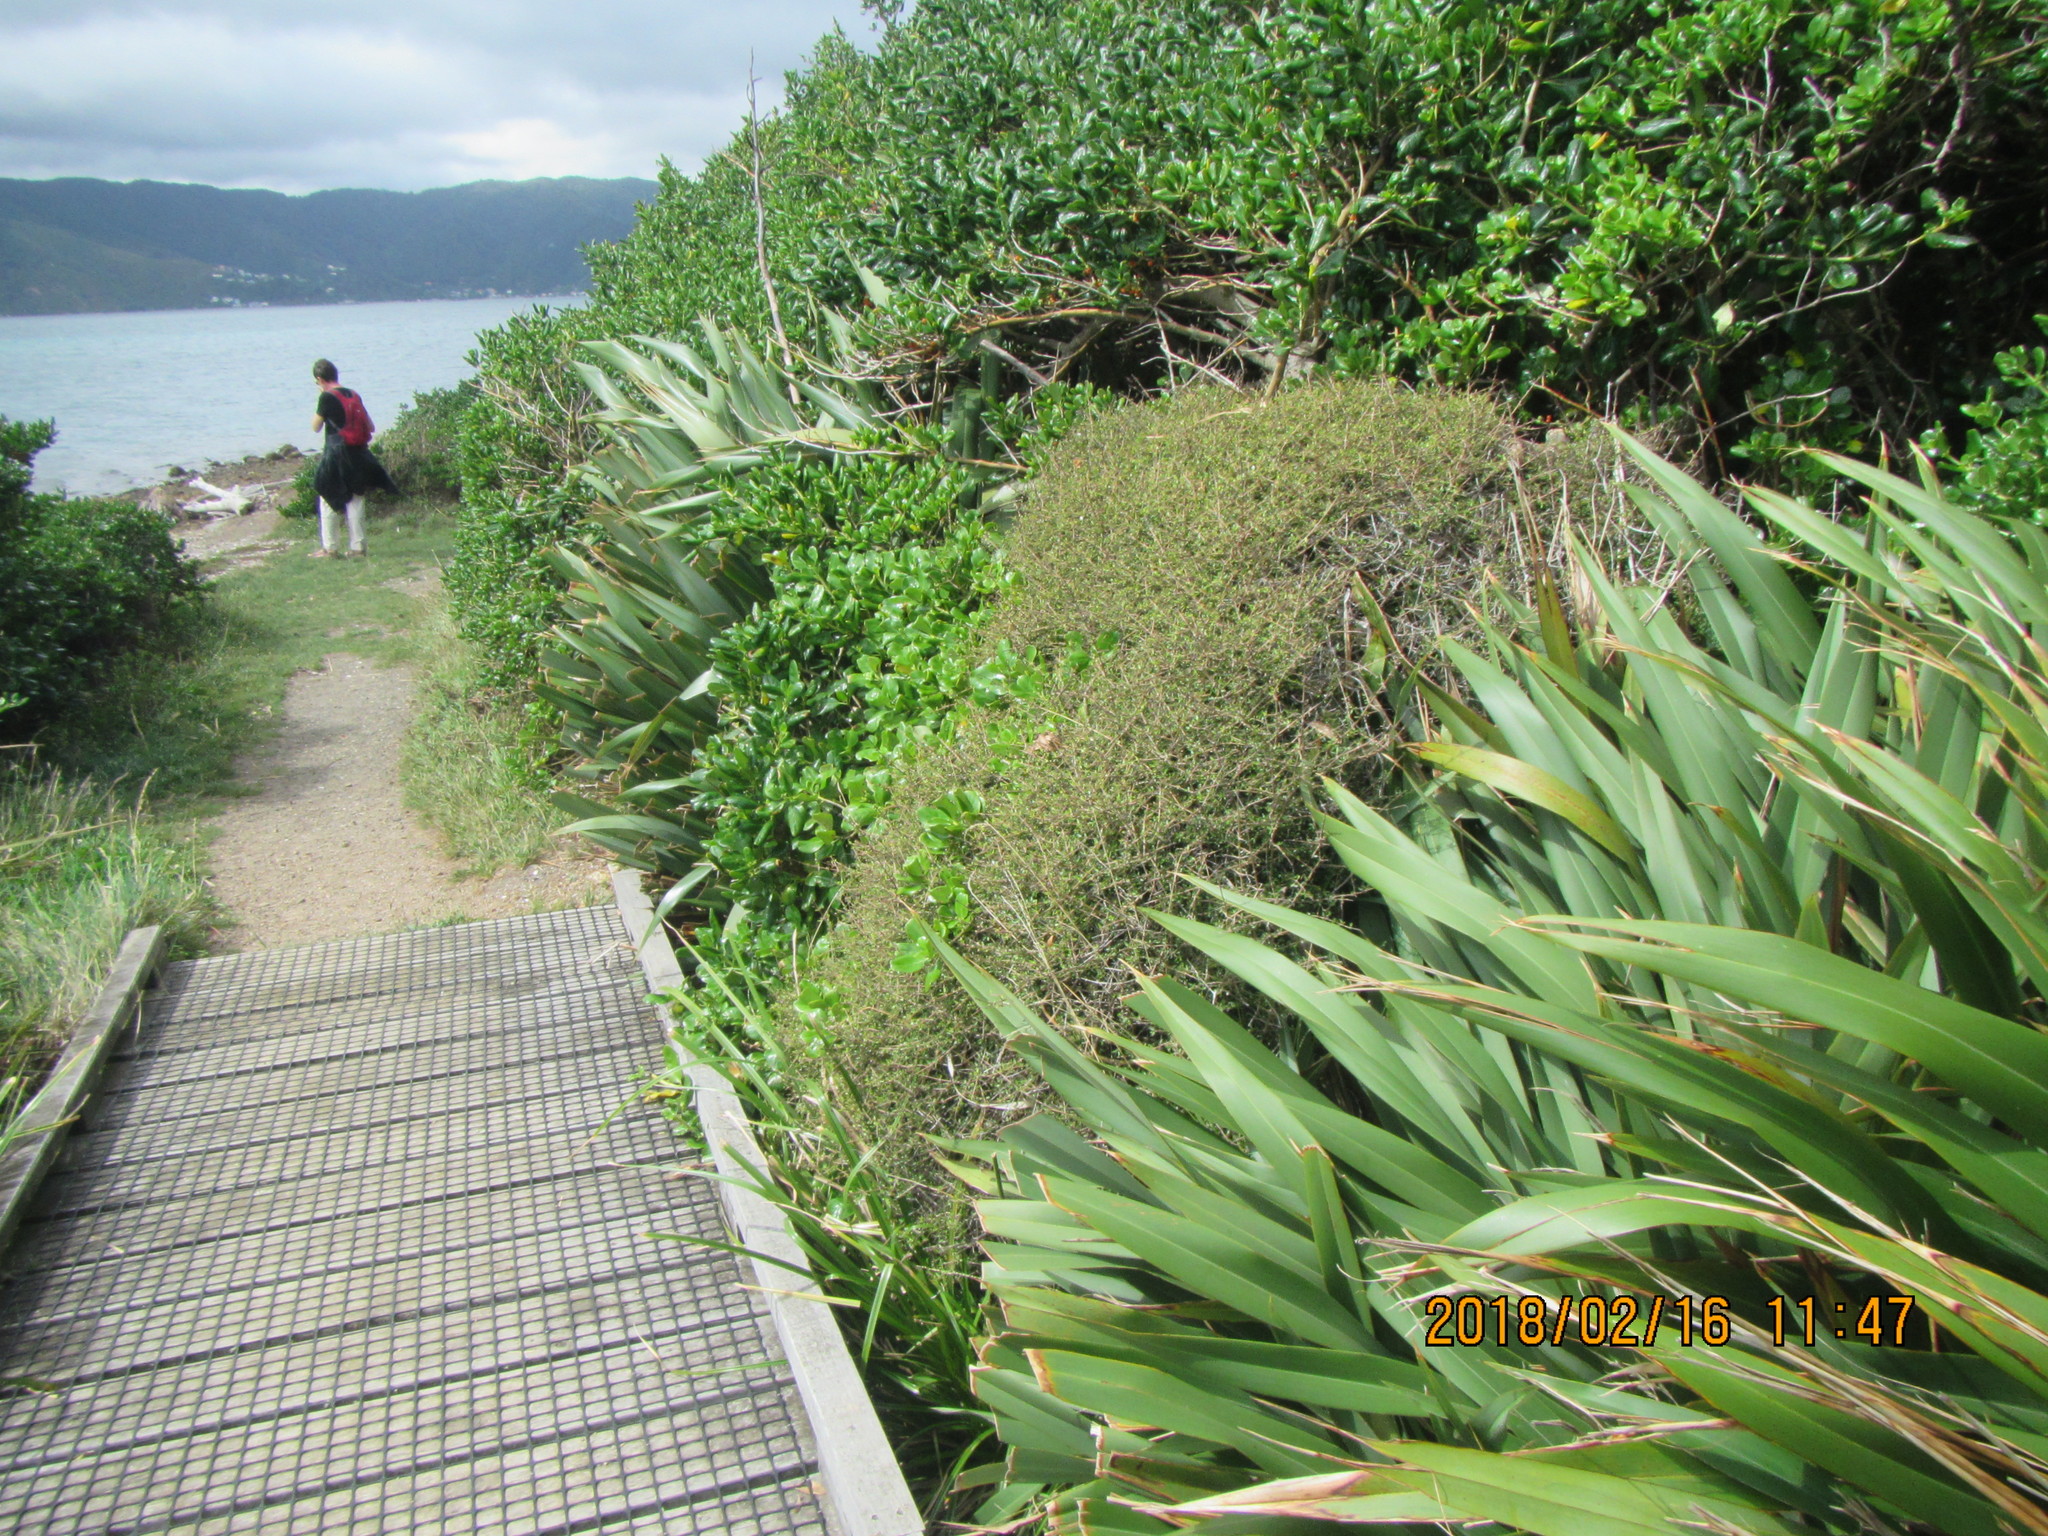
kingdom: Plantae
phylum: Tracheophyta
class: Magnoliopsida
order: Gentianales
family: Rubiaceae
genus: Coprosma
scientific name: Coprosma propinqua
